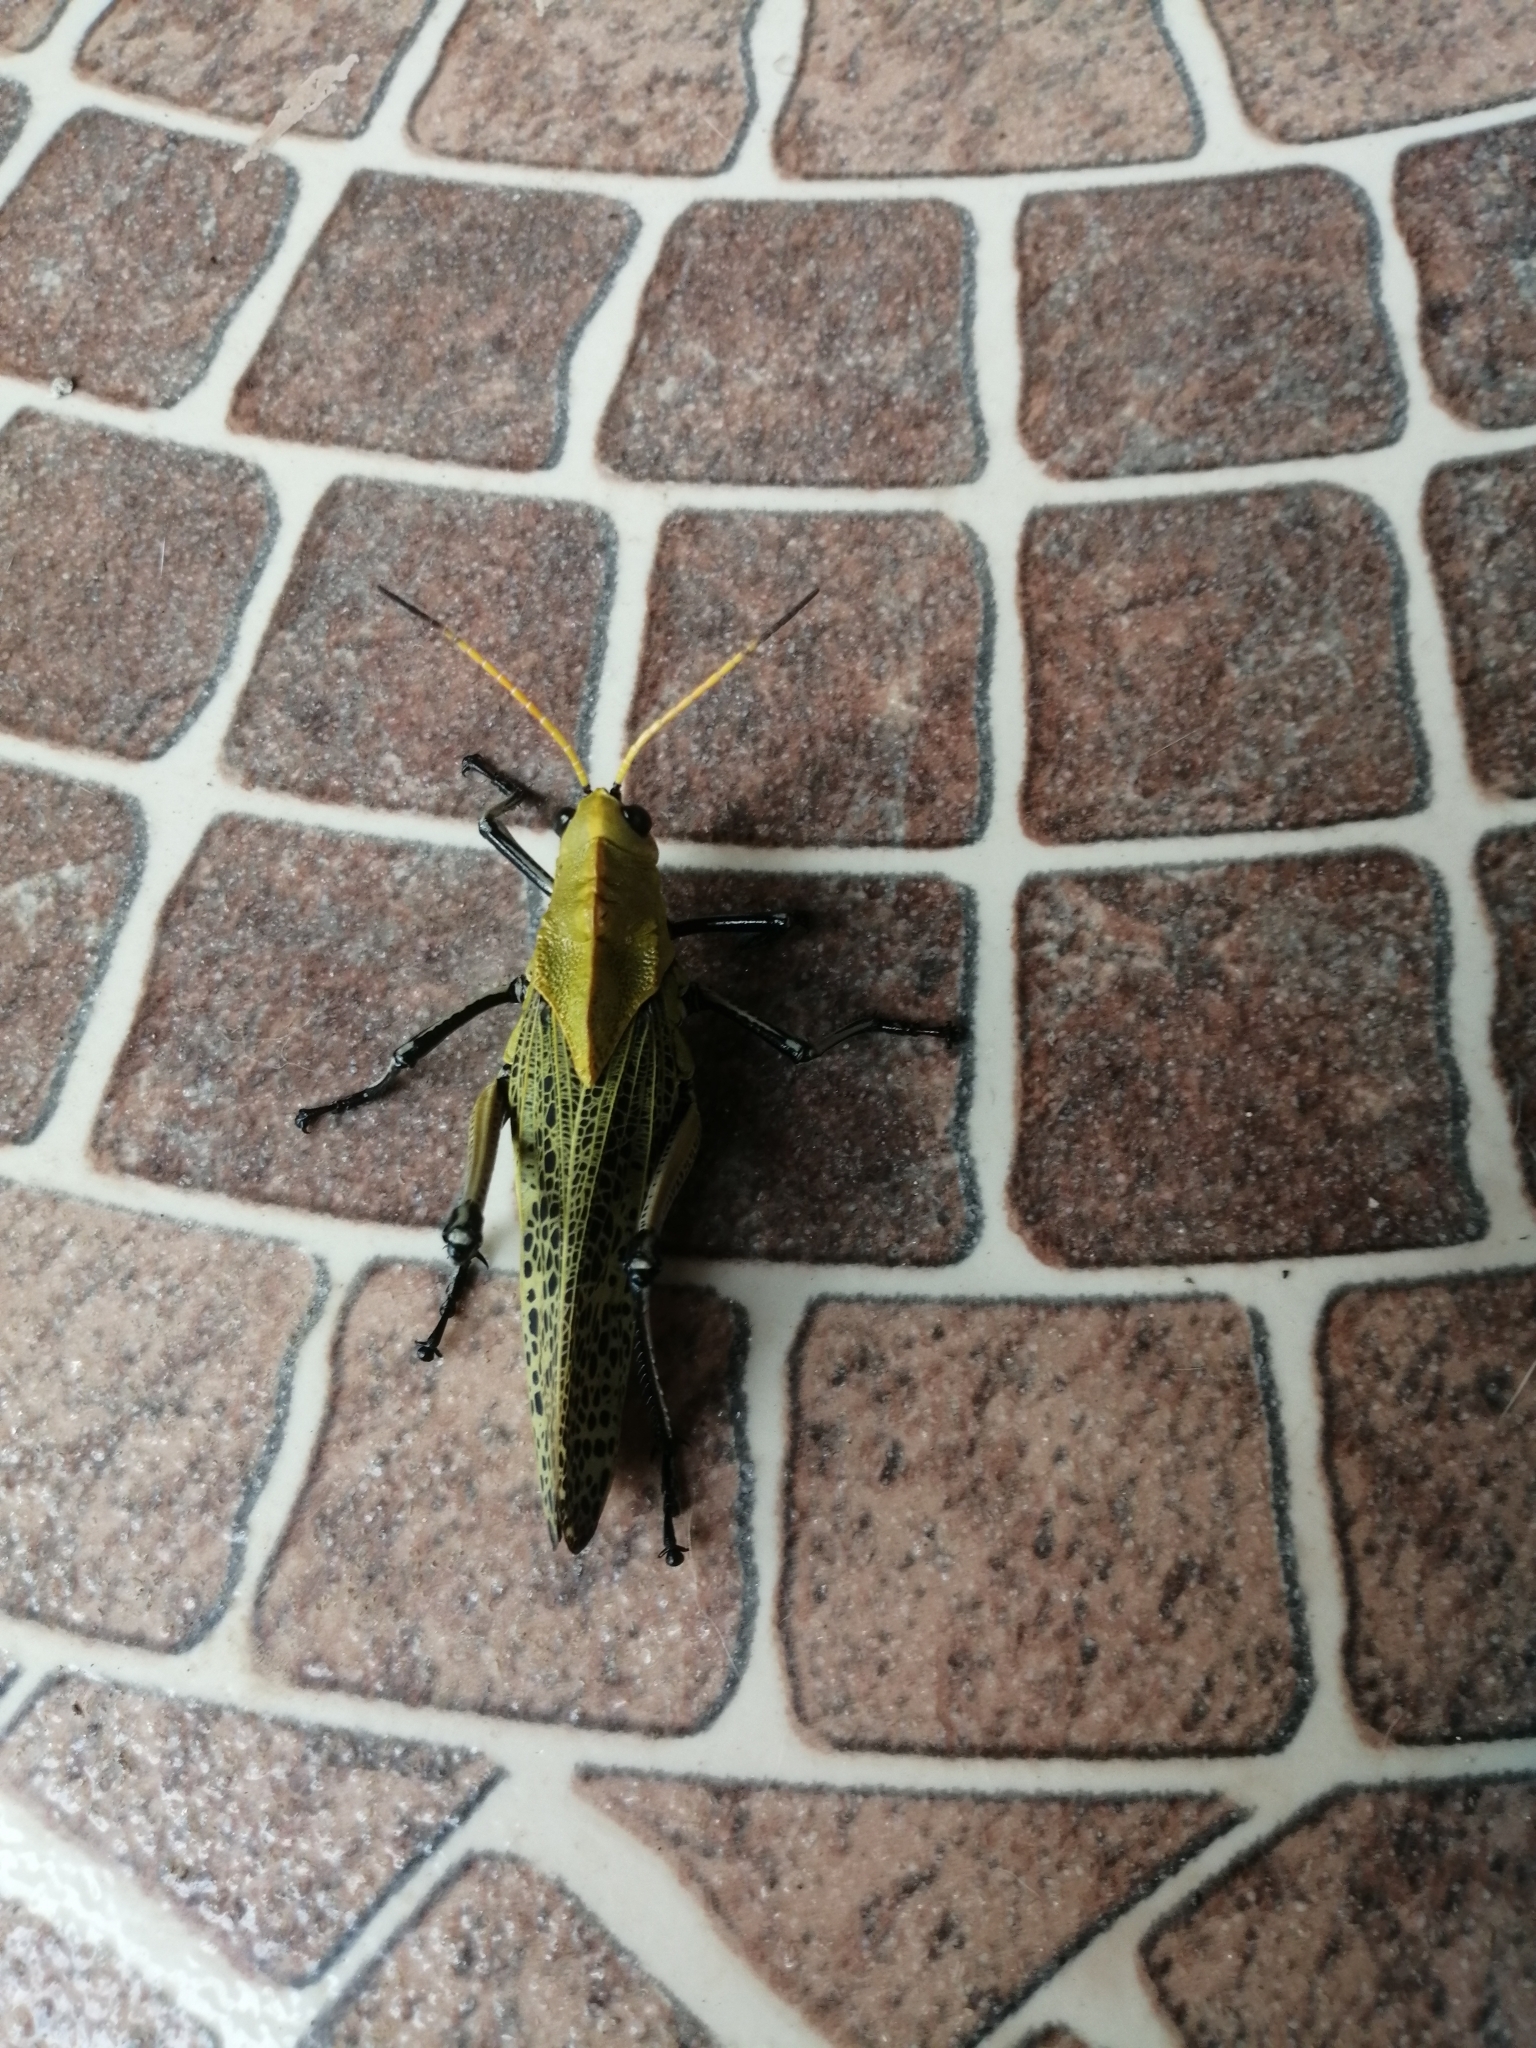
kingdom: Animalia
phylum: Arthropoda
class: Insecta
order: Orthoptera
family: Romaleidae
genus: Romalea
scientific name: Romalea
